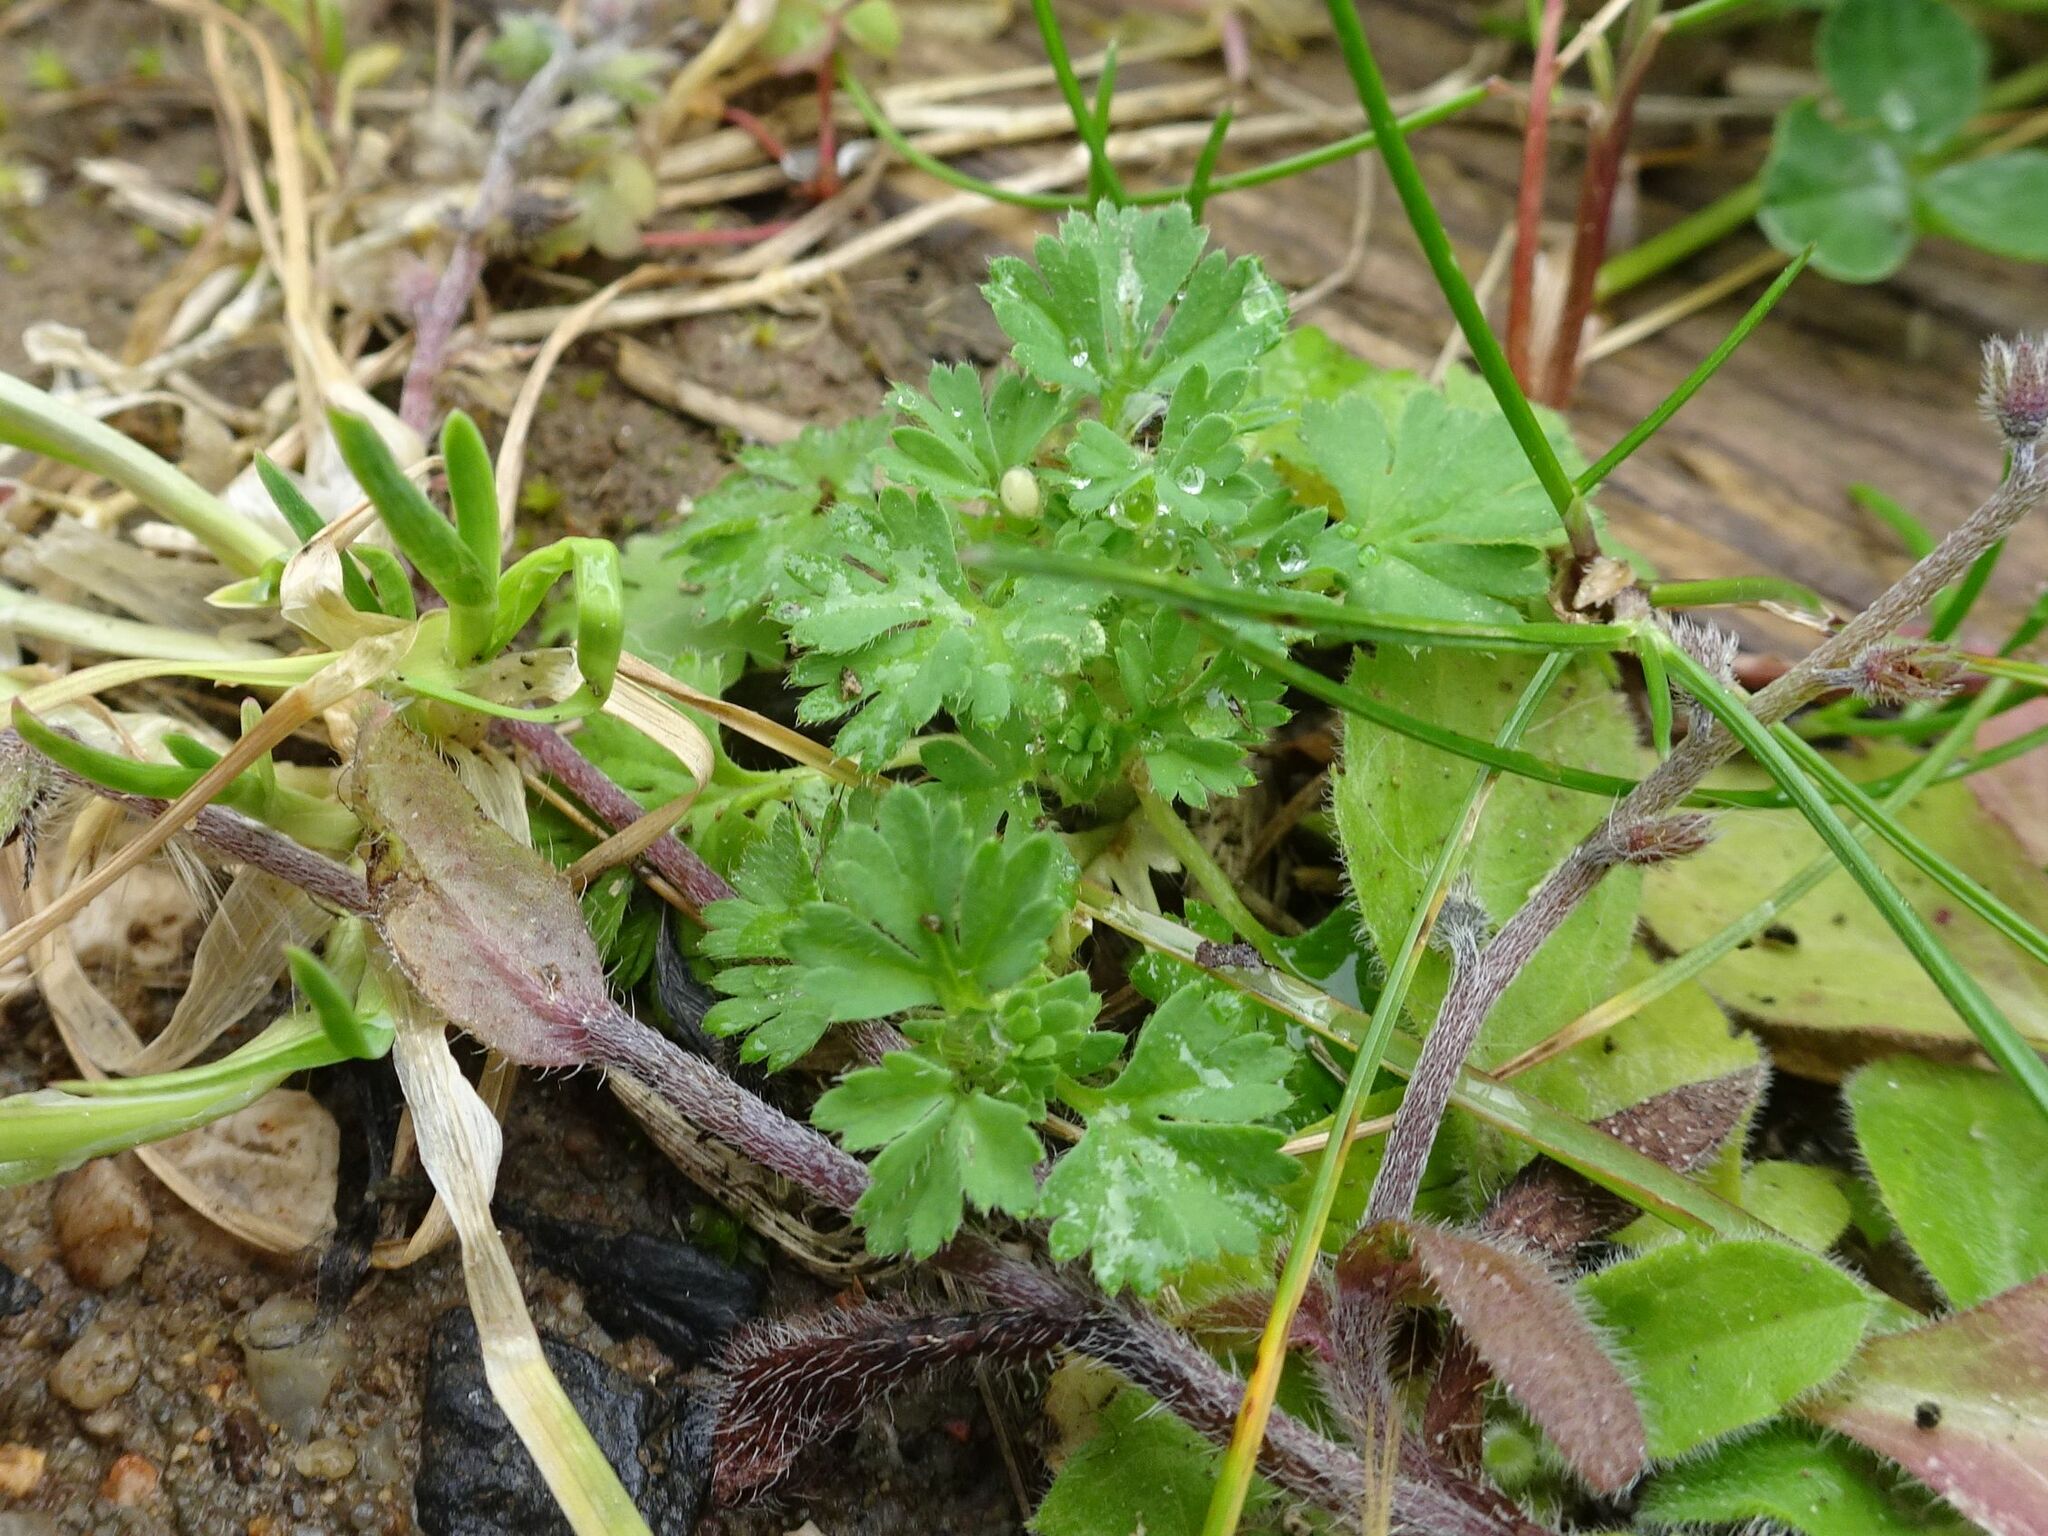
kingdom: Plantae
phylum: Tracheophyta
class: Magnoliopsida
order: Rosales
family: Rosaceae
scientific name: Rosaceae
